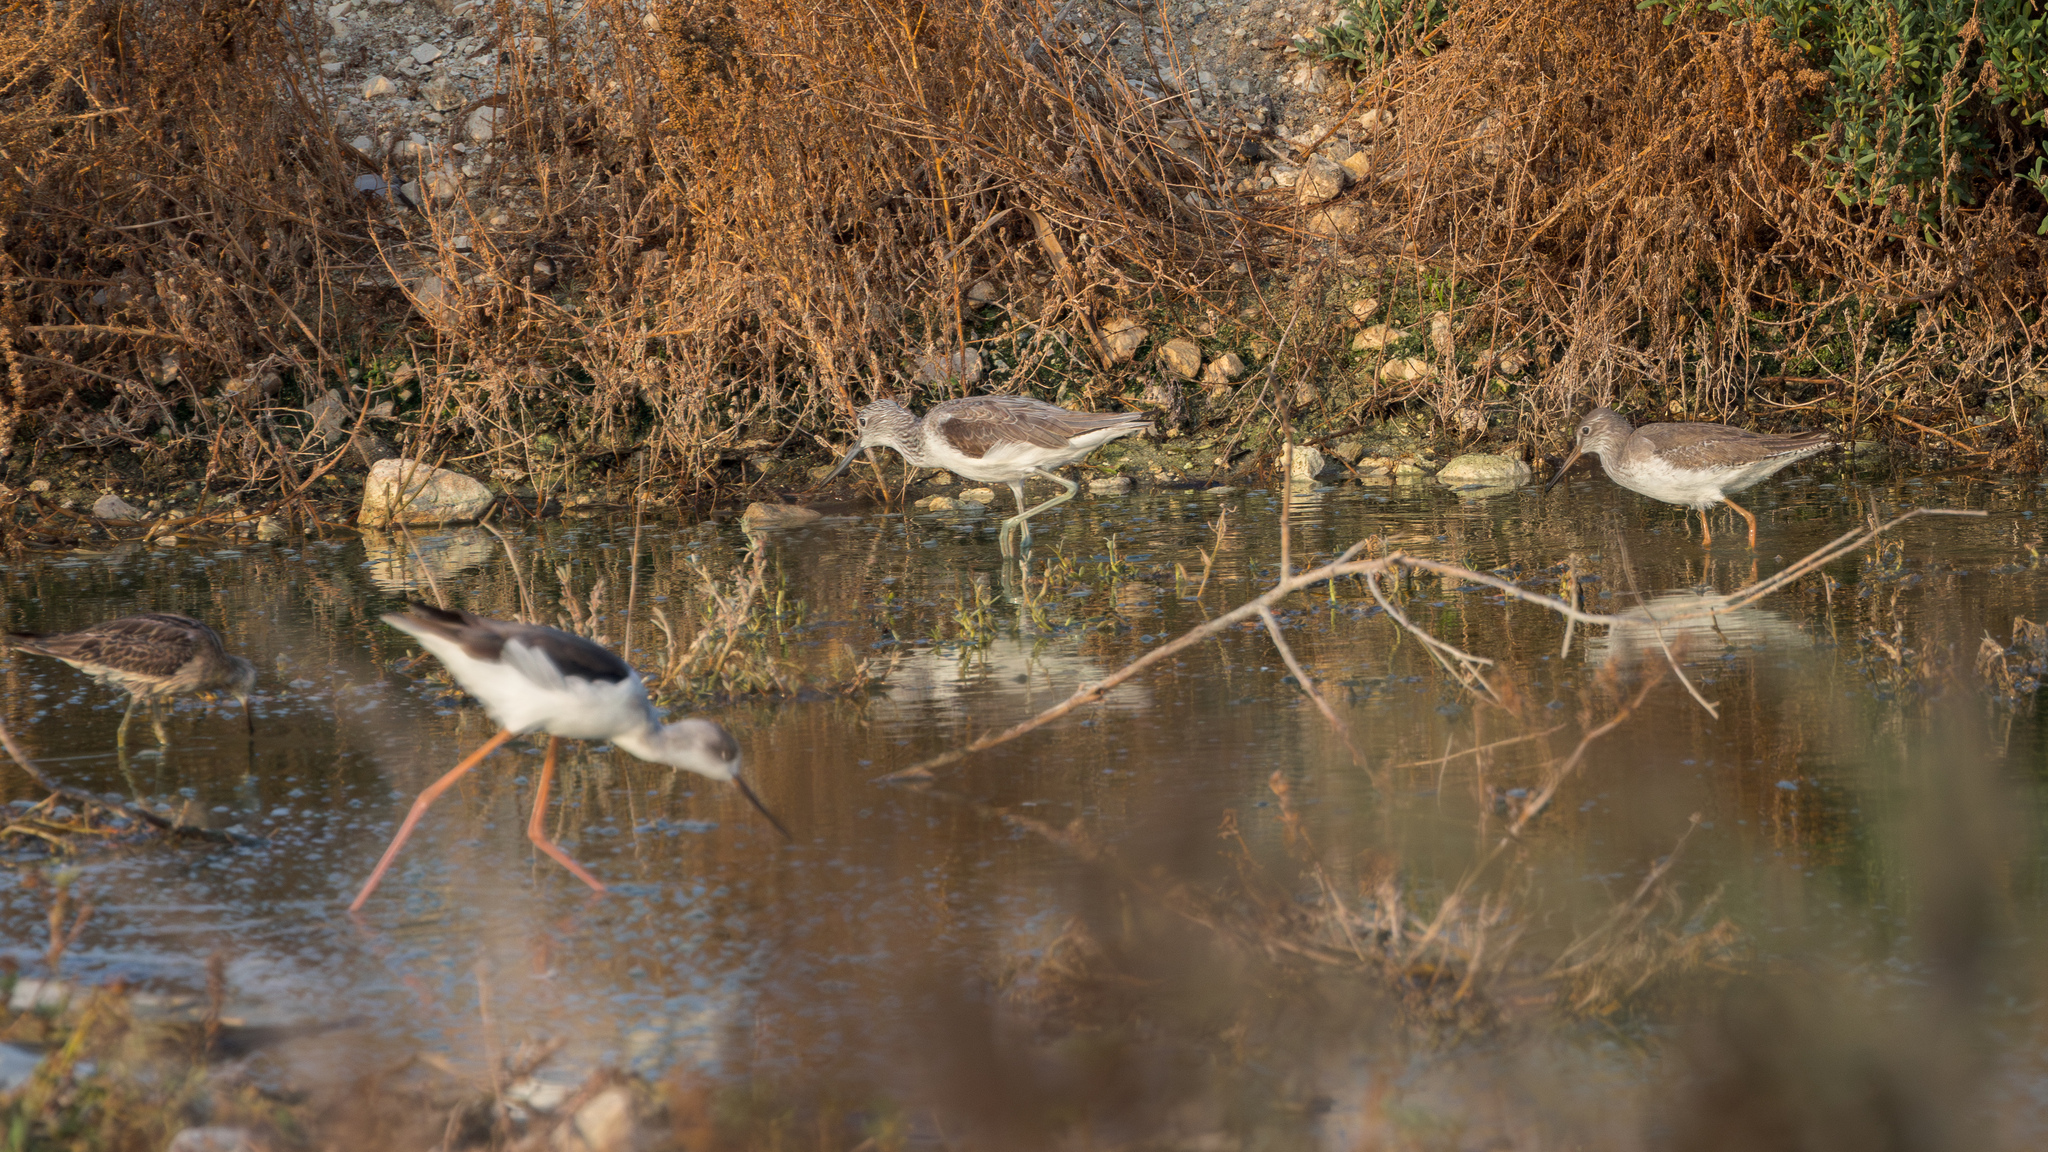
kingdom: Animalia
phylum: Chordata
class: Aves
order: Charadriiformes
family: Scolopacidae
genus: Tringa
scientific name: Tringa nebularia
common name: Common greenshank
